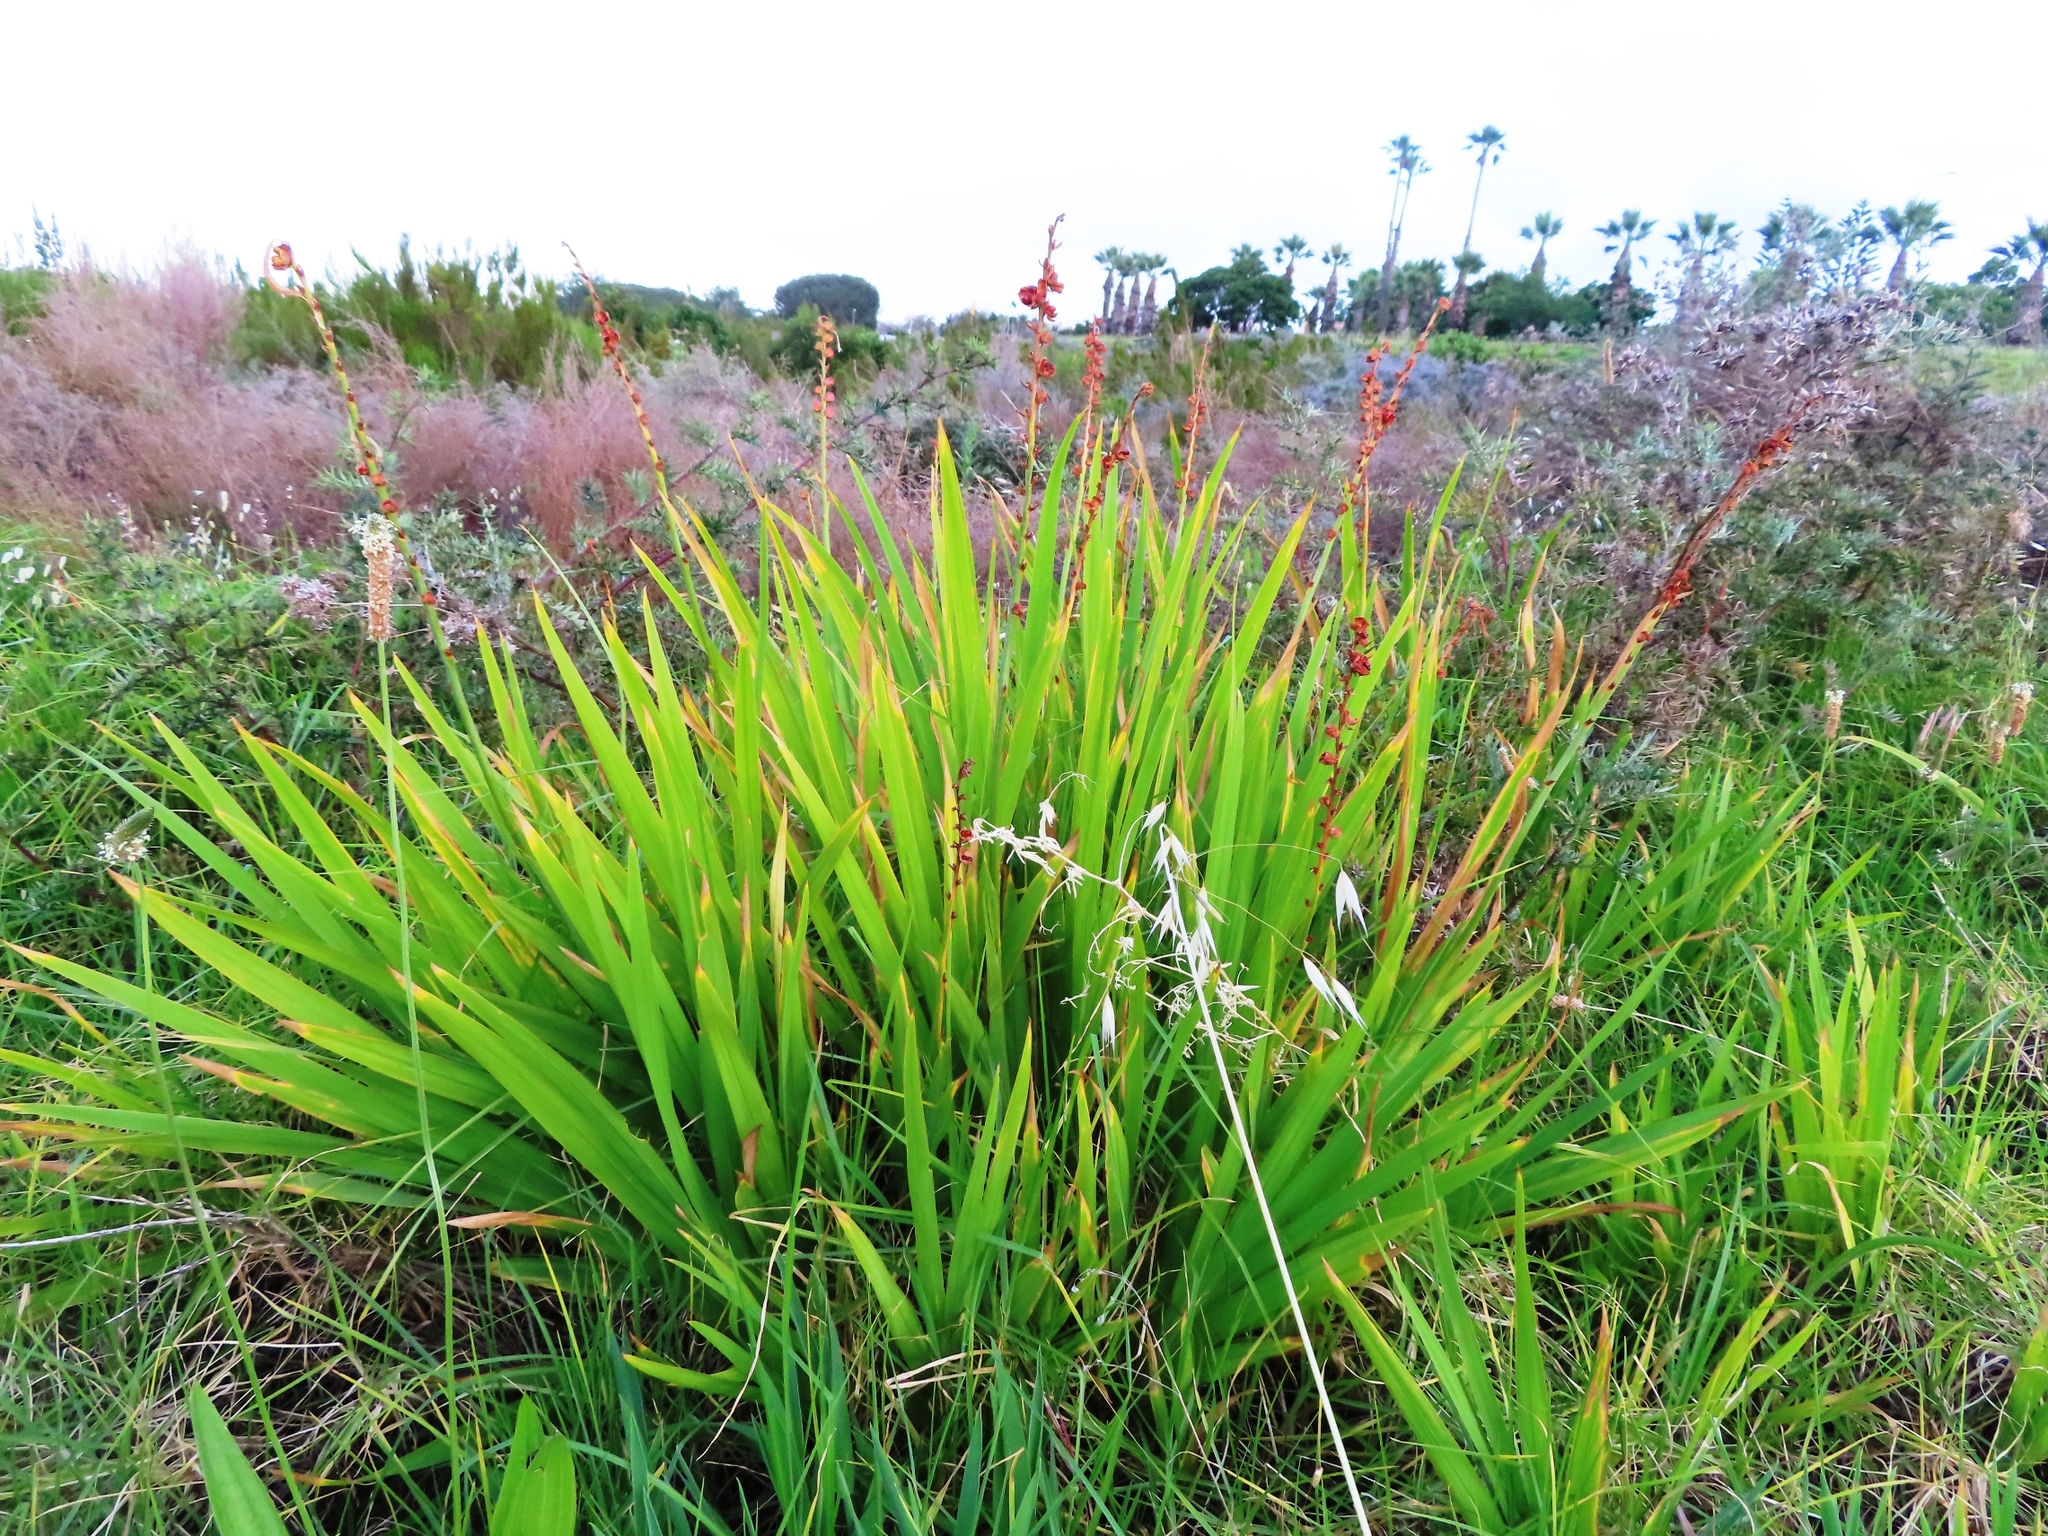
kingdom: Plantae
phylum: Tracheophyta
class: Liliopsida
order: Asparagales
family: Iridaceae
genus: Chasmanthe
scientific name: Chasmanthe aethiopica
